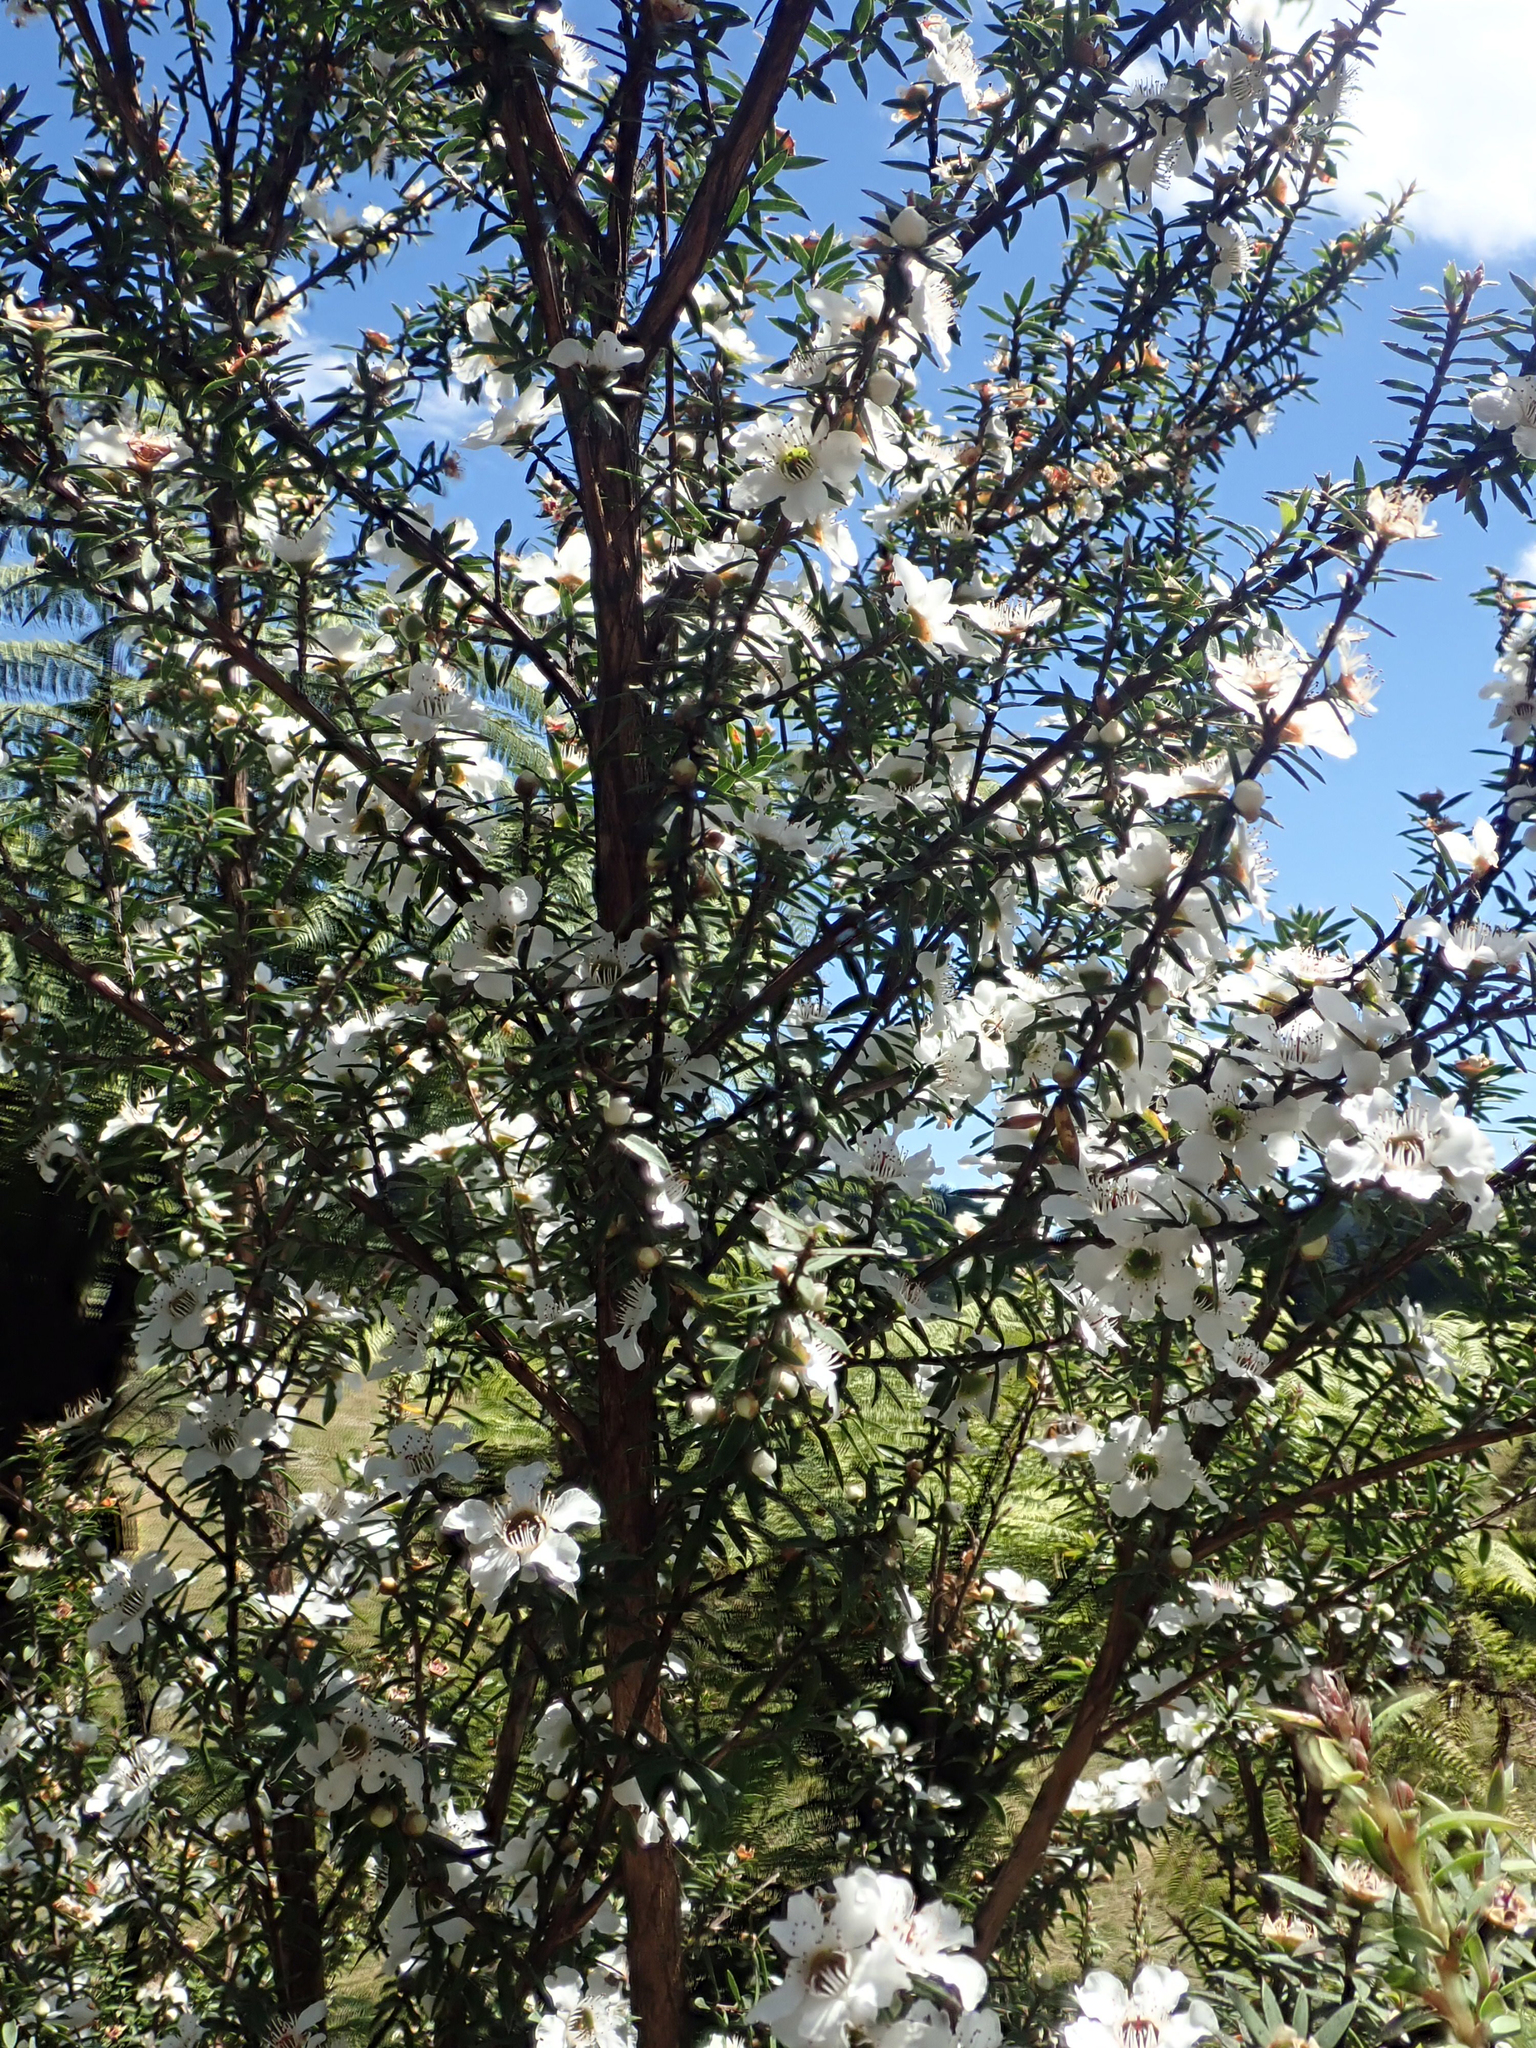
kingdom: Plantae
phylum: Tracheophyta
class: Magnoliopsida
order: Myrtales
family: Myrtaceae
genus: Leptospermum
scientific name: Leptospermum scoparium
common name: Broom tea-tree
